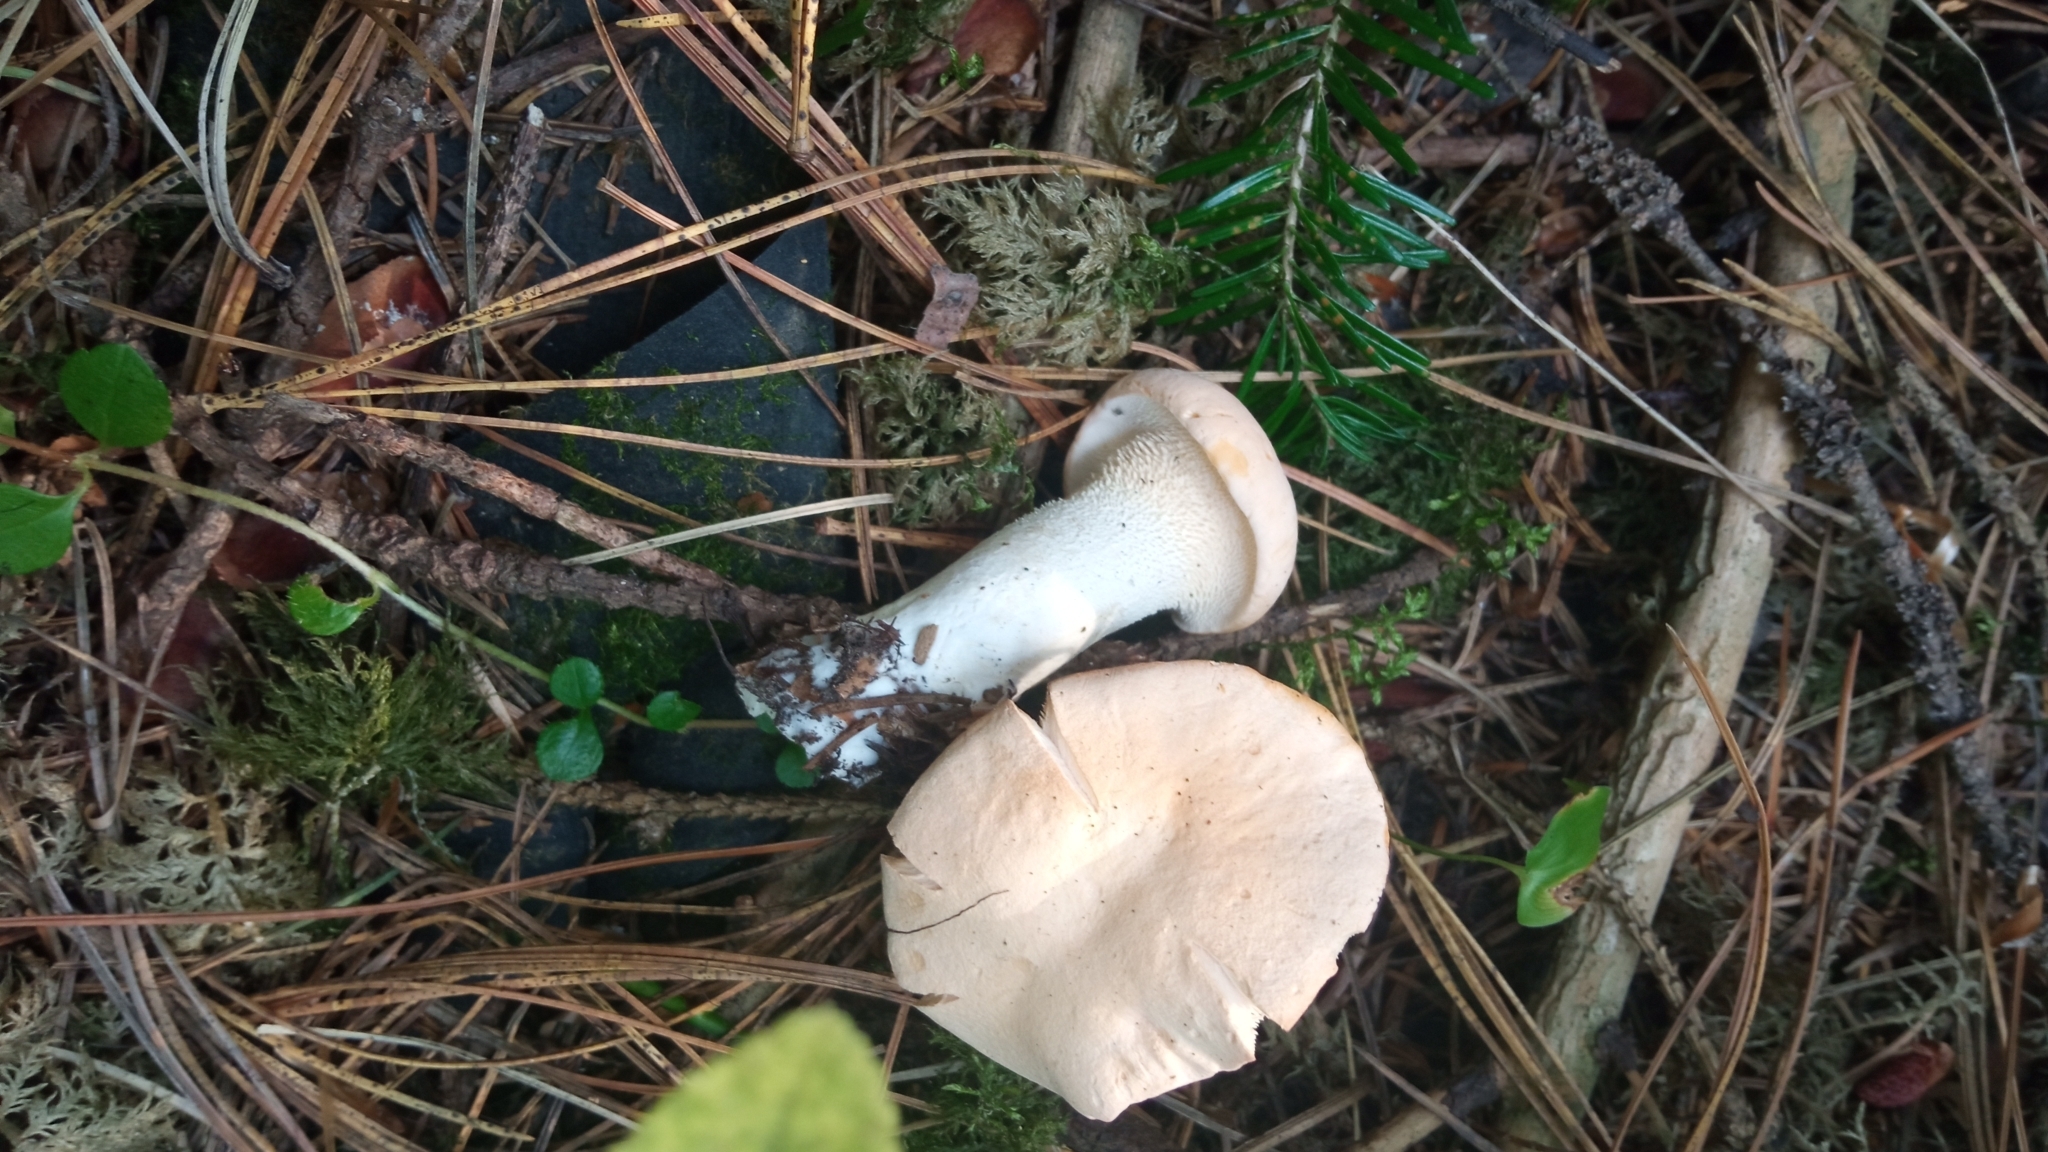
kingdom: Fungi
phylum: Basidiomycota
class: Agaricomycetes
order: Cantharellales
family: Hydnaceae
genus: Hydnum
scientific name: Hydnum repandum
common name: Wood hedgehog
